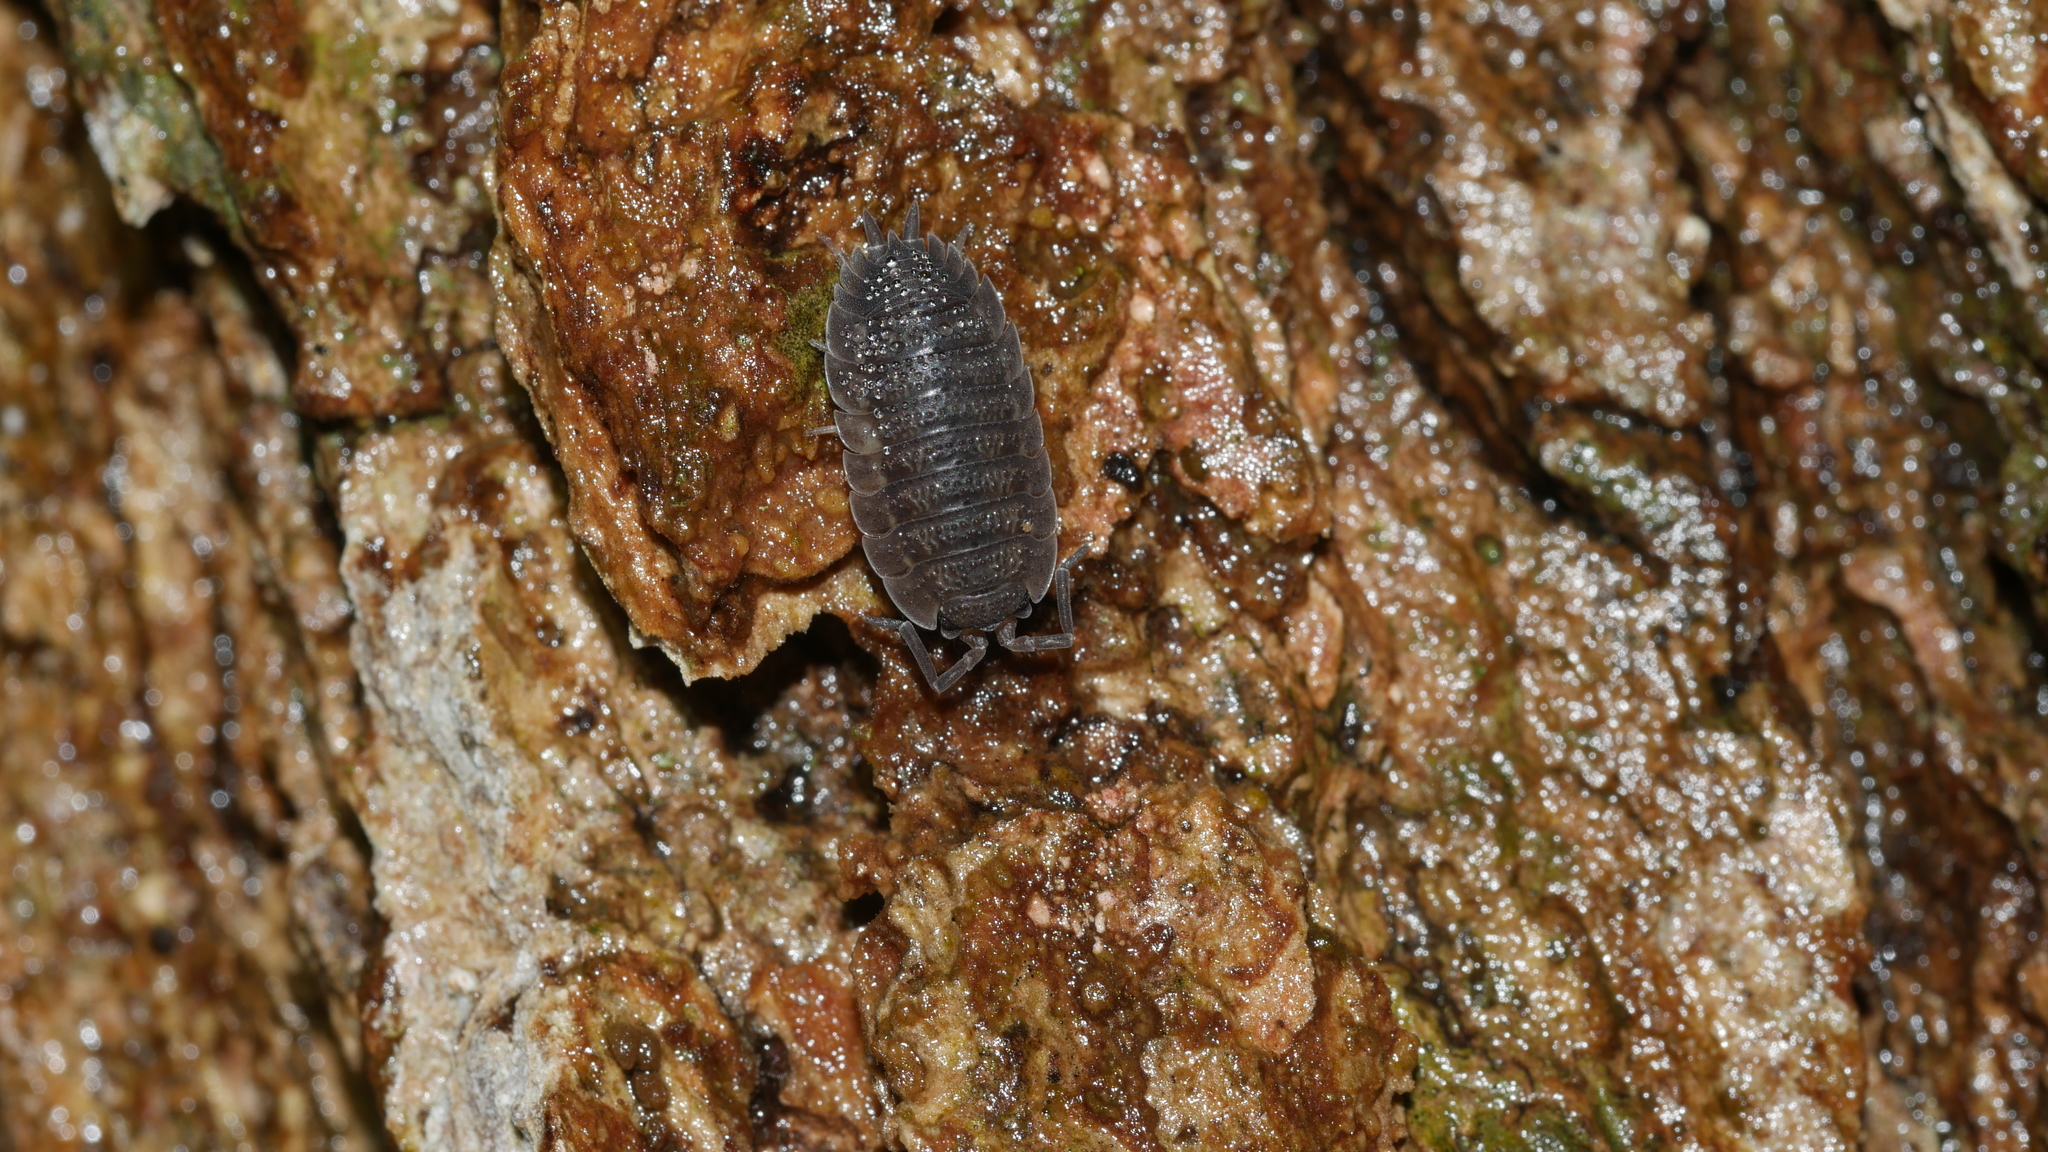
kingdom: Animalia
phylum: Arthropoda
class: Malacostraca
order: Isopoda
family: Porcellionidae
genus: Porcellio
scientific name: Porcellio scaber
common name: Common rough woodlouse
